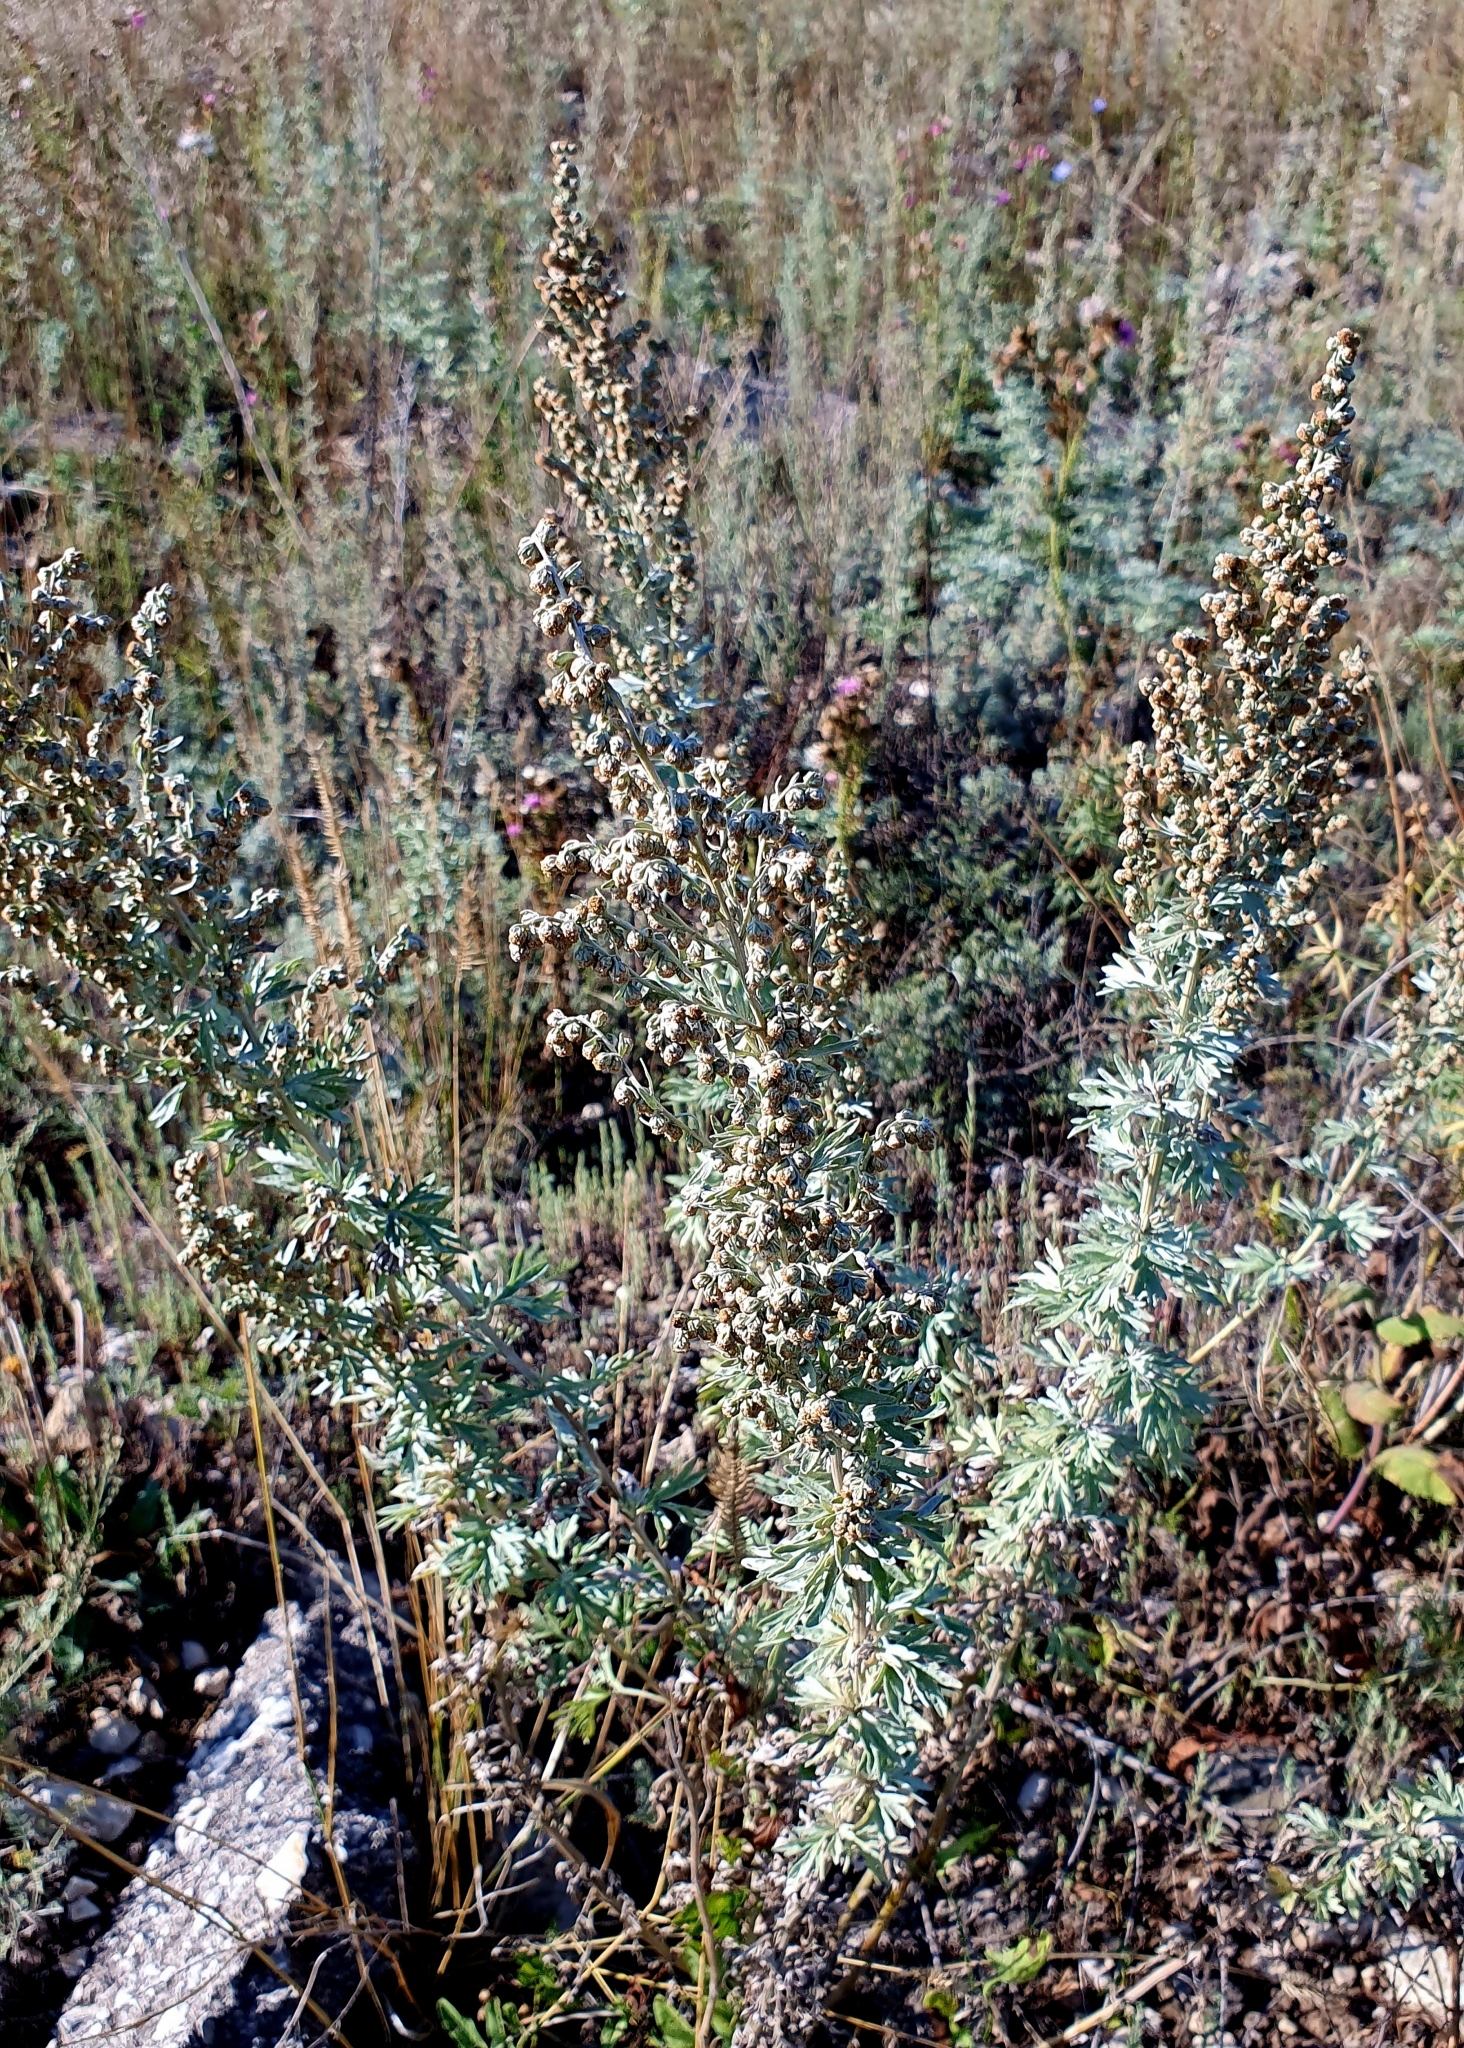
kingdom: Plantae
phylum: Tracheophyta
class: Magnoliopsida
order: Asterales
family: Asteraceae
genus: Artemisia
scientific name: Artemisia absinthium
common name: Wormwood
